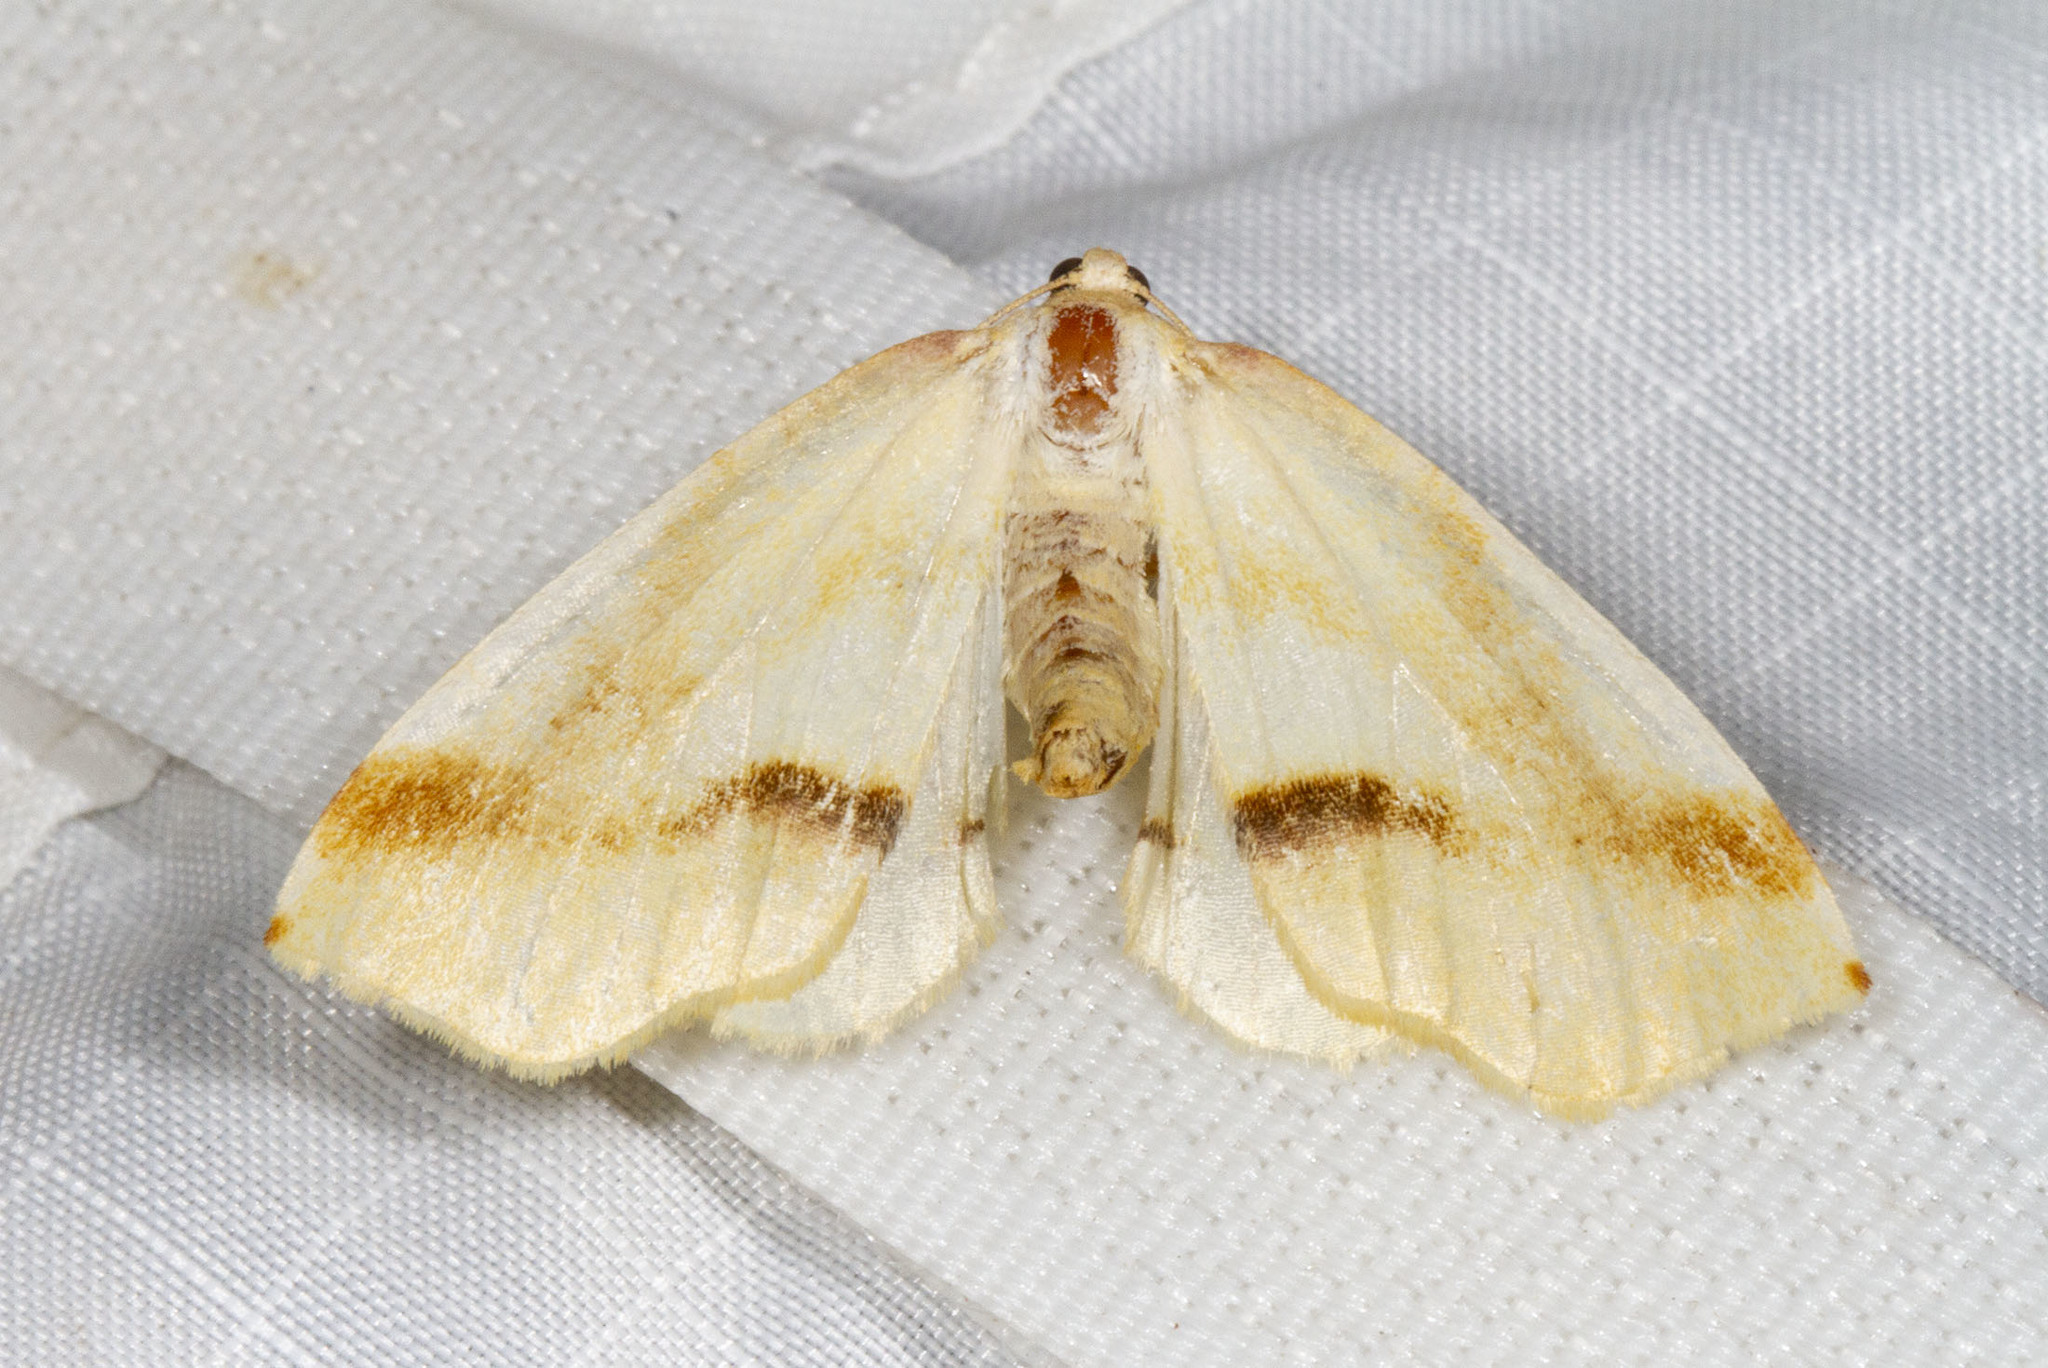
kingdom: Animalia
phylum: Arthropoda
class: Insecta
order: Lepidoptera
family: Geometridae
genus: Plagodis
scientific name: Plagodis serinaria
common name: Lemon plagodis
